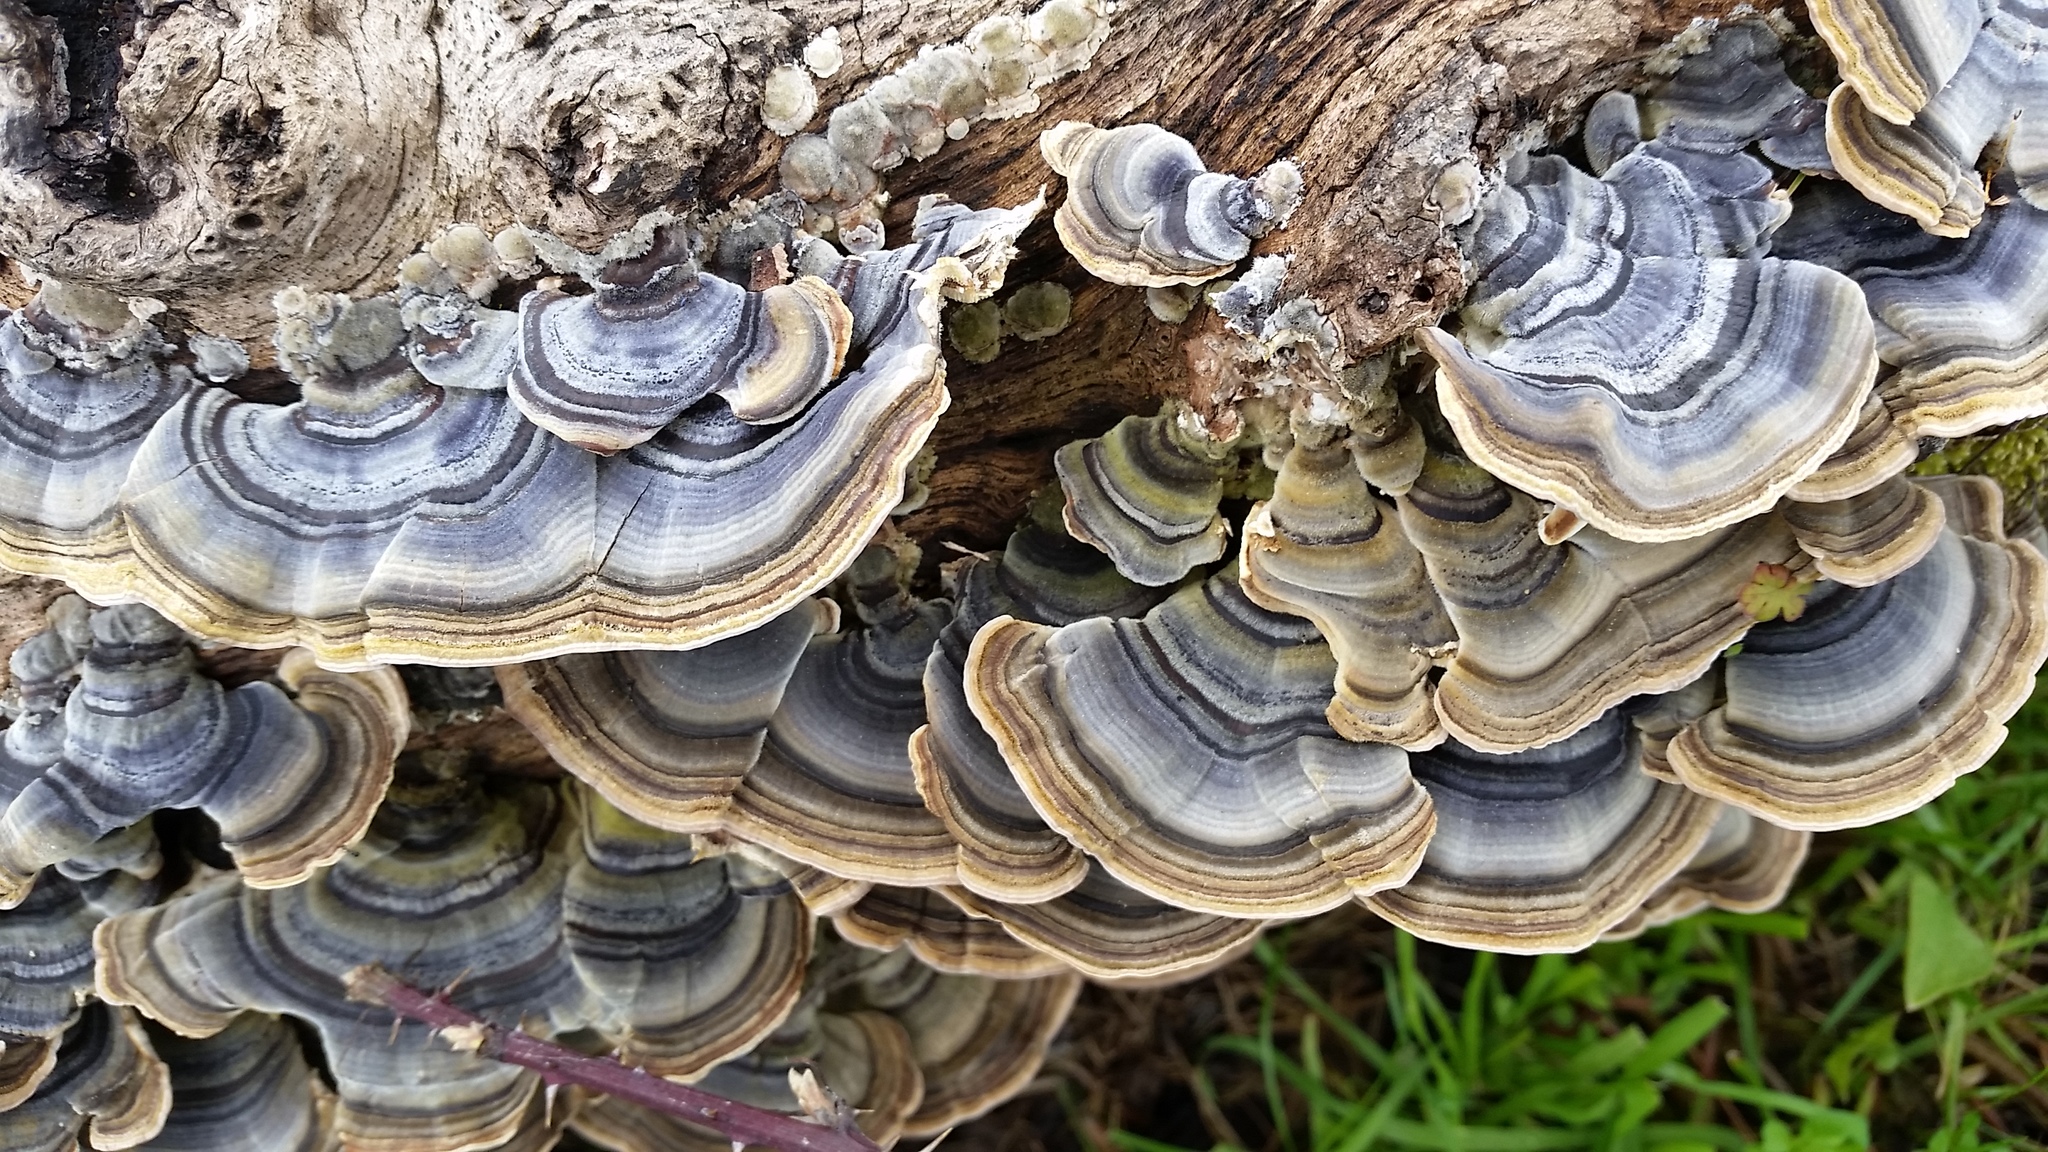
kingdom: Fungi
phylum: Basidiomycota
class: Agaricomycetes
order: Polyporales
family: Polyporaceae
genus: Trametes
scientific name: Trametes versicolor
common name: Turkeytail
